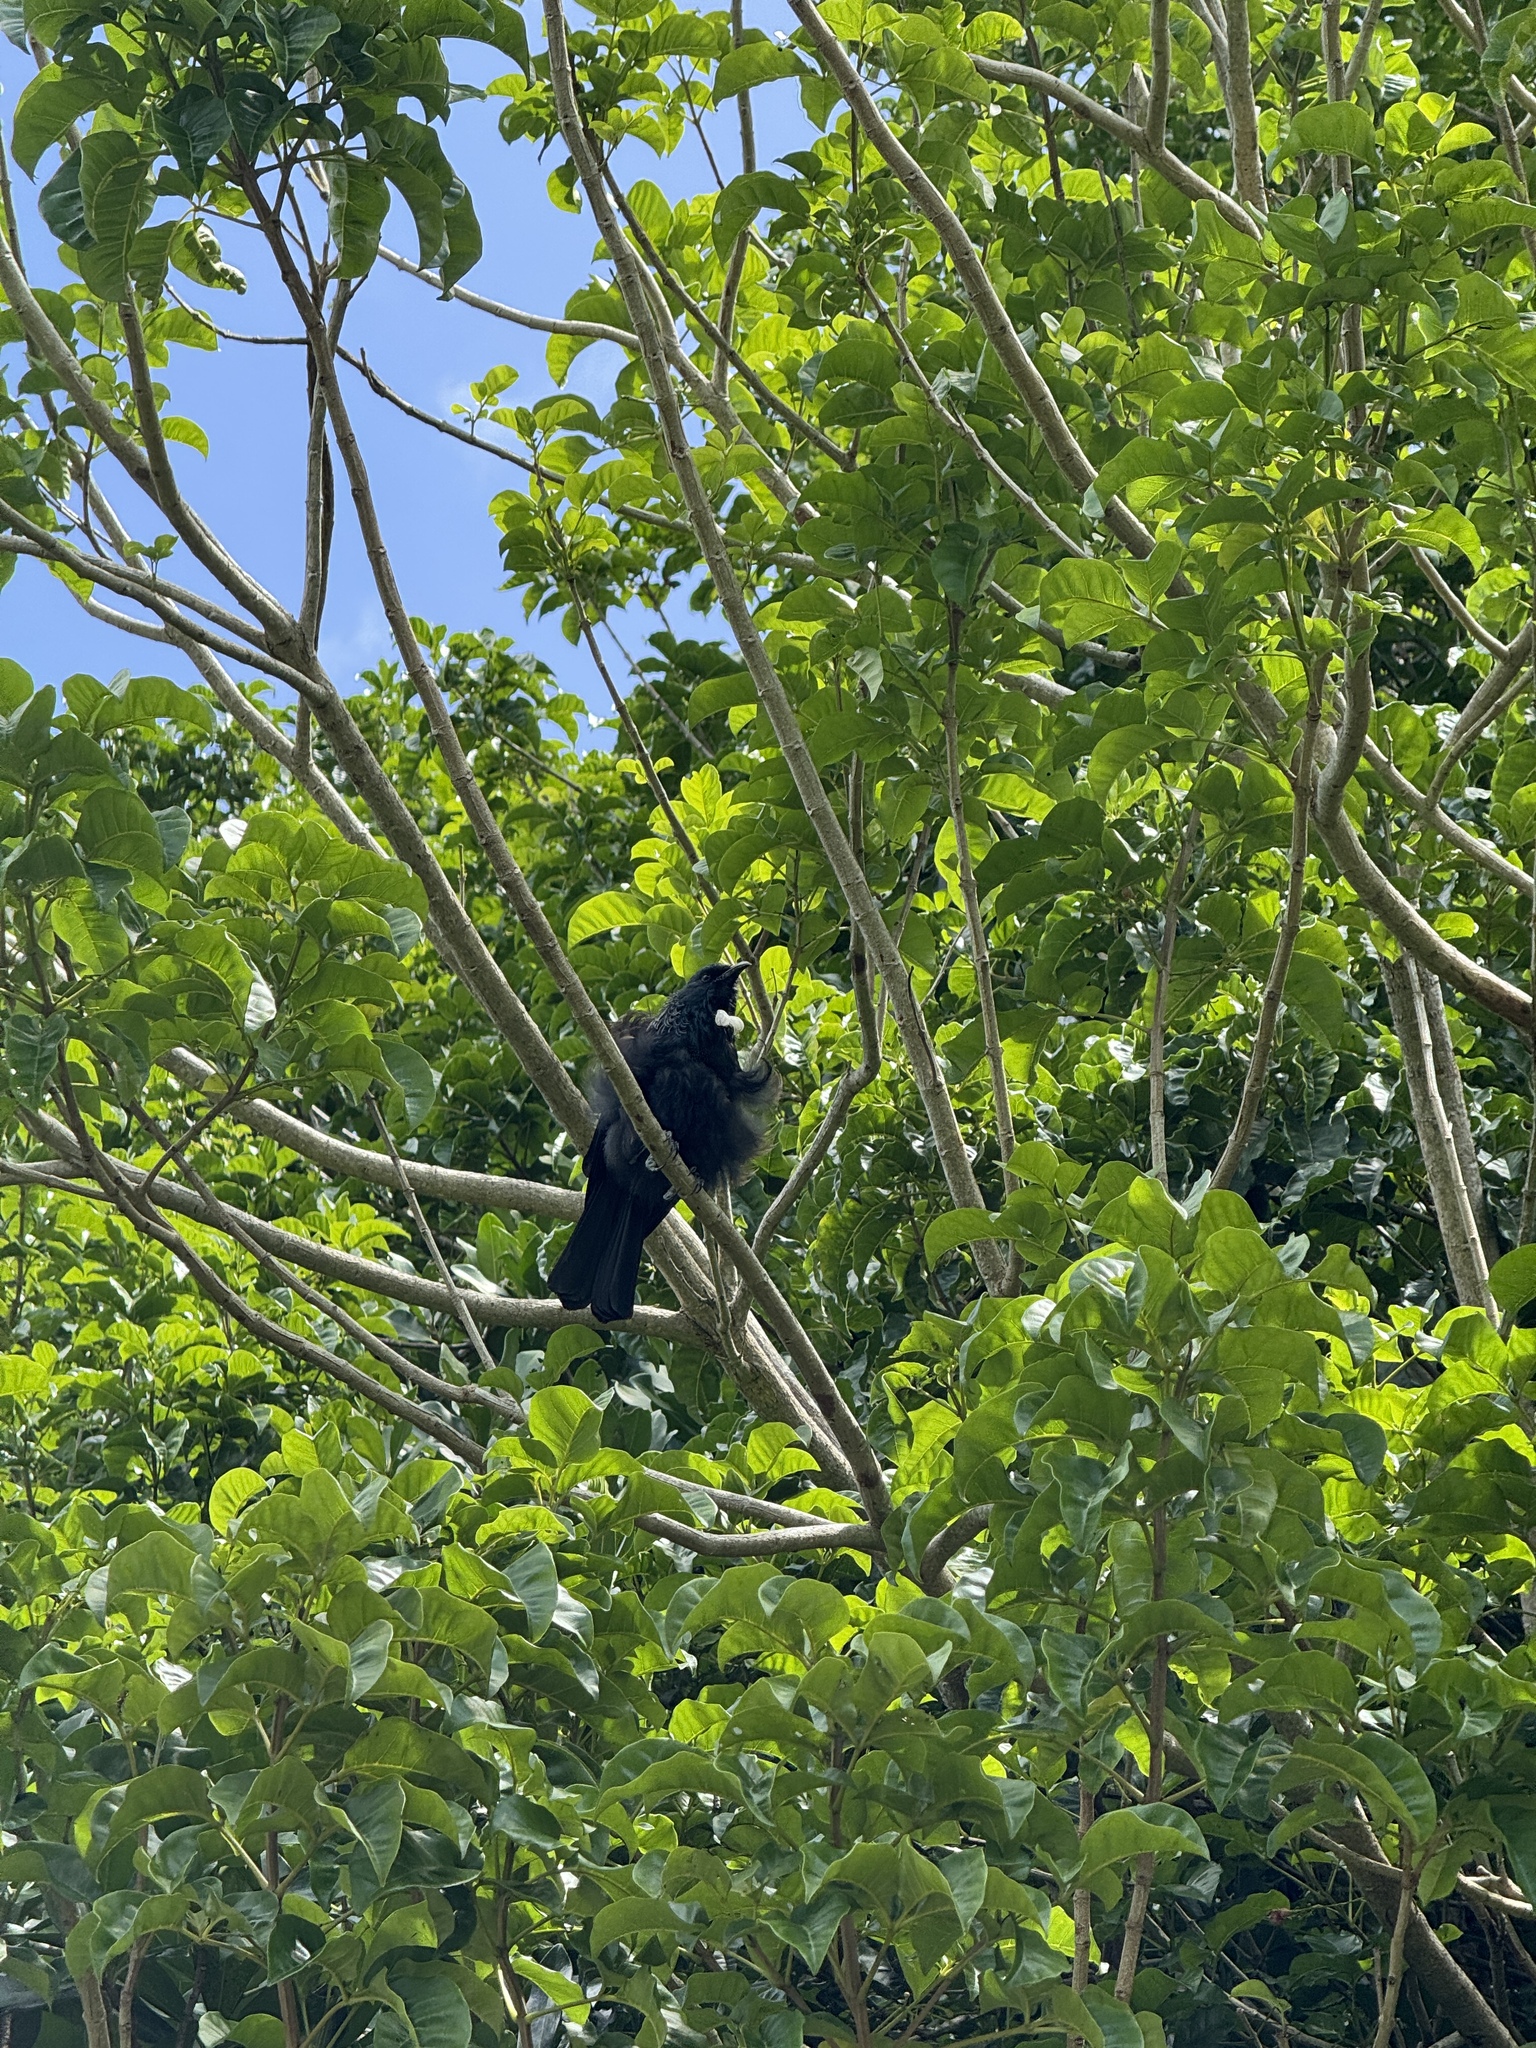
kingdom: Animalia
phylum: Chordata
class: Aves
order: Passeriformes
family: Meliphagidae
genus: Prosthemadera
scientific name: Prosthemadera novaeseelandiae
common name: Tui
